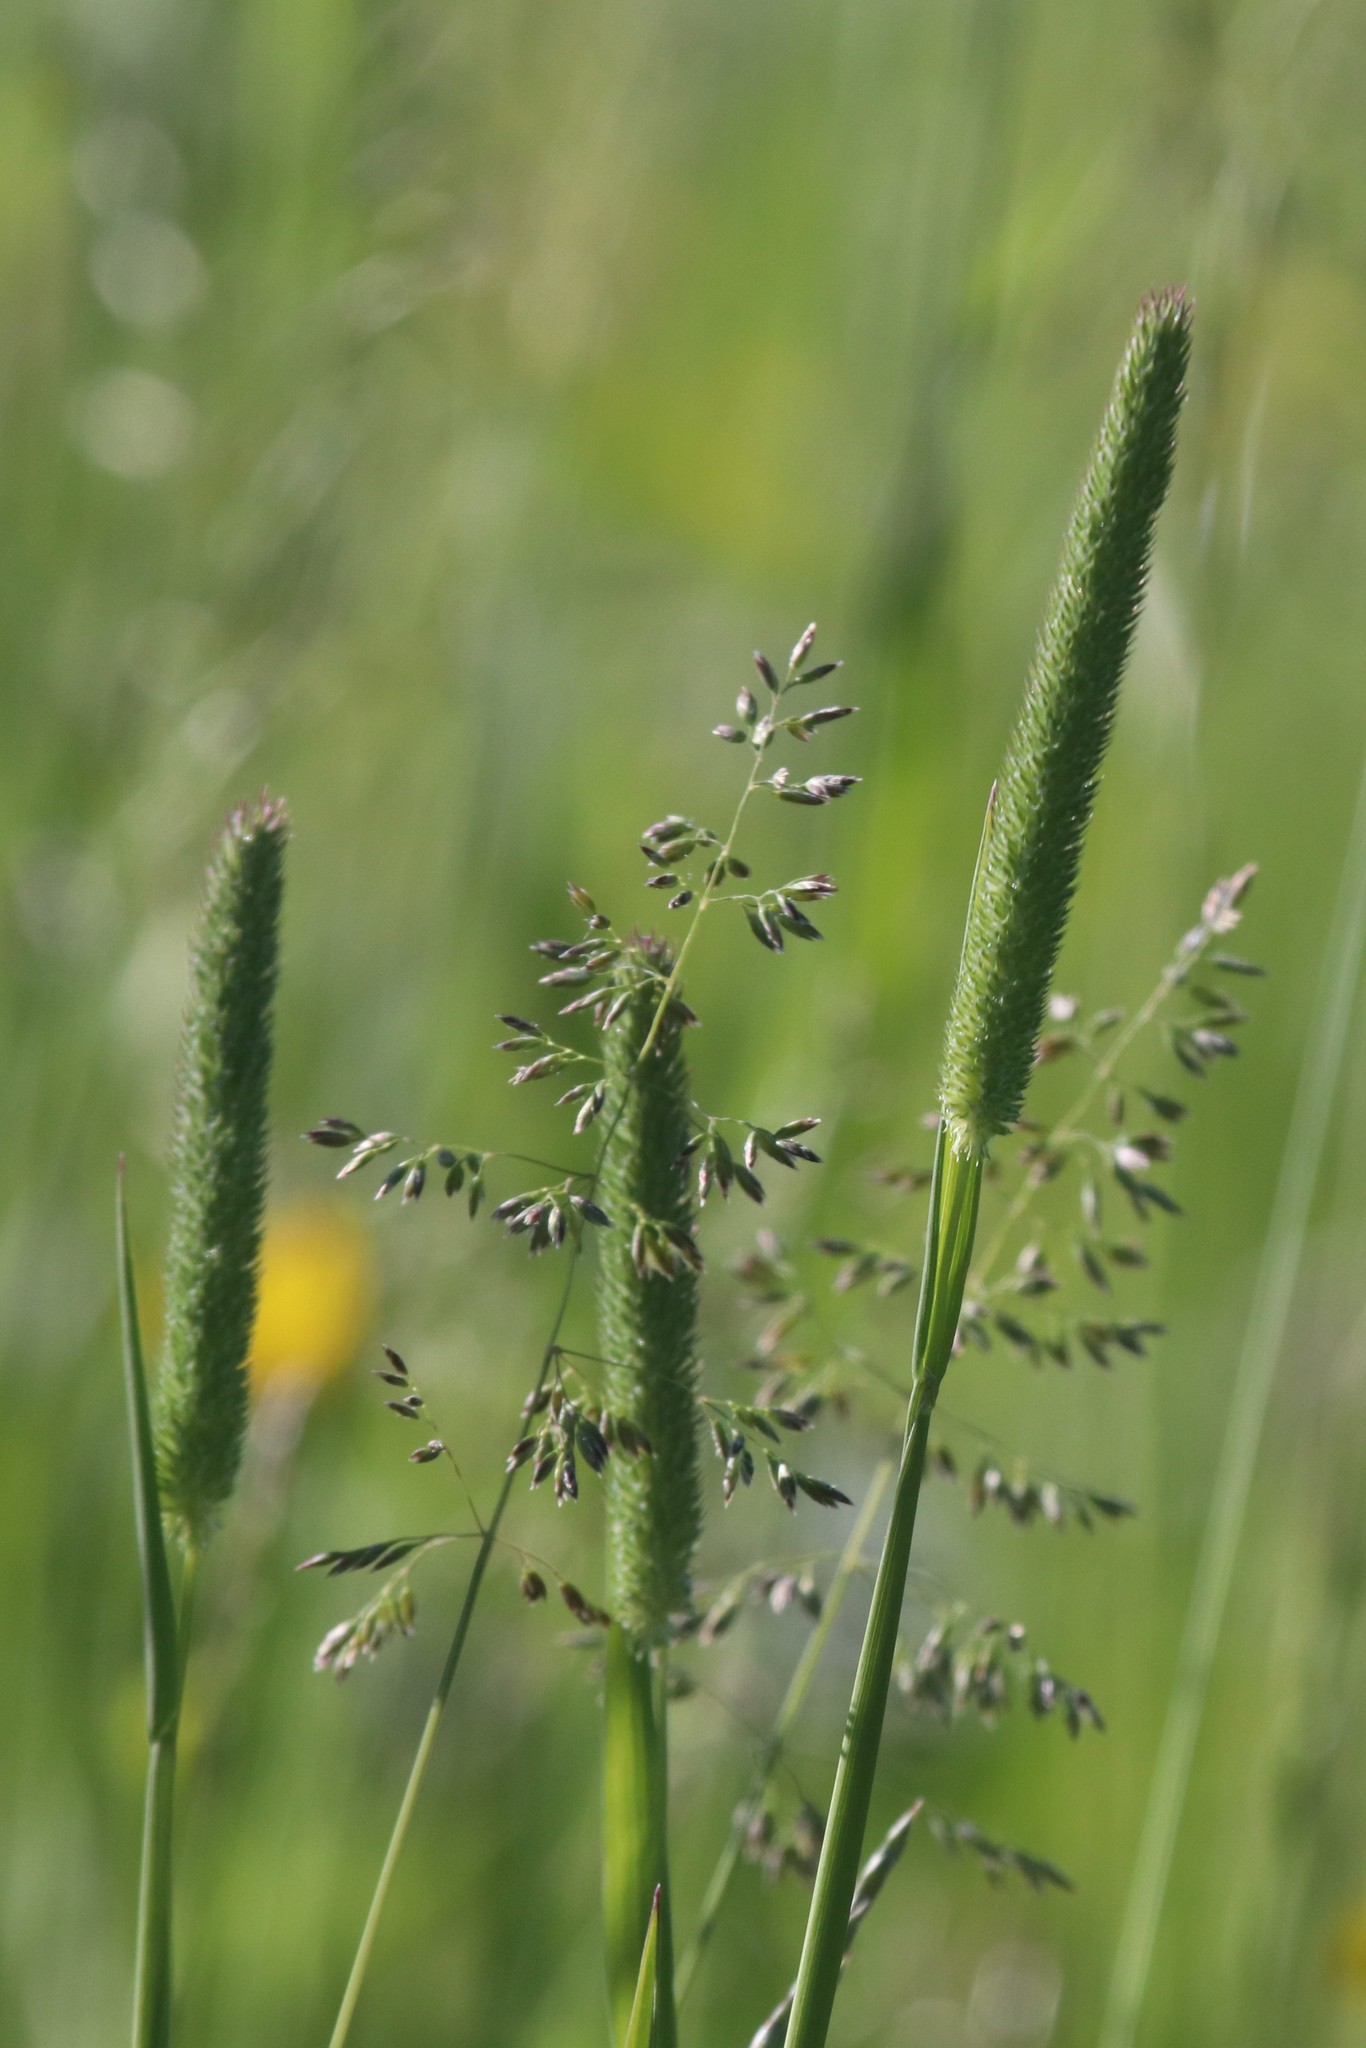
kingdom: Plantae
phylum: Tracheophyta
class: Liliopsida
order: Poales
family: Poaceae
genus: Phleum
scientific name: Phleum pratense
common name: Timothy grass
